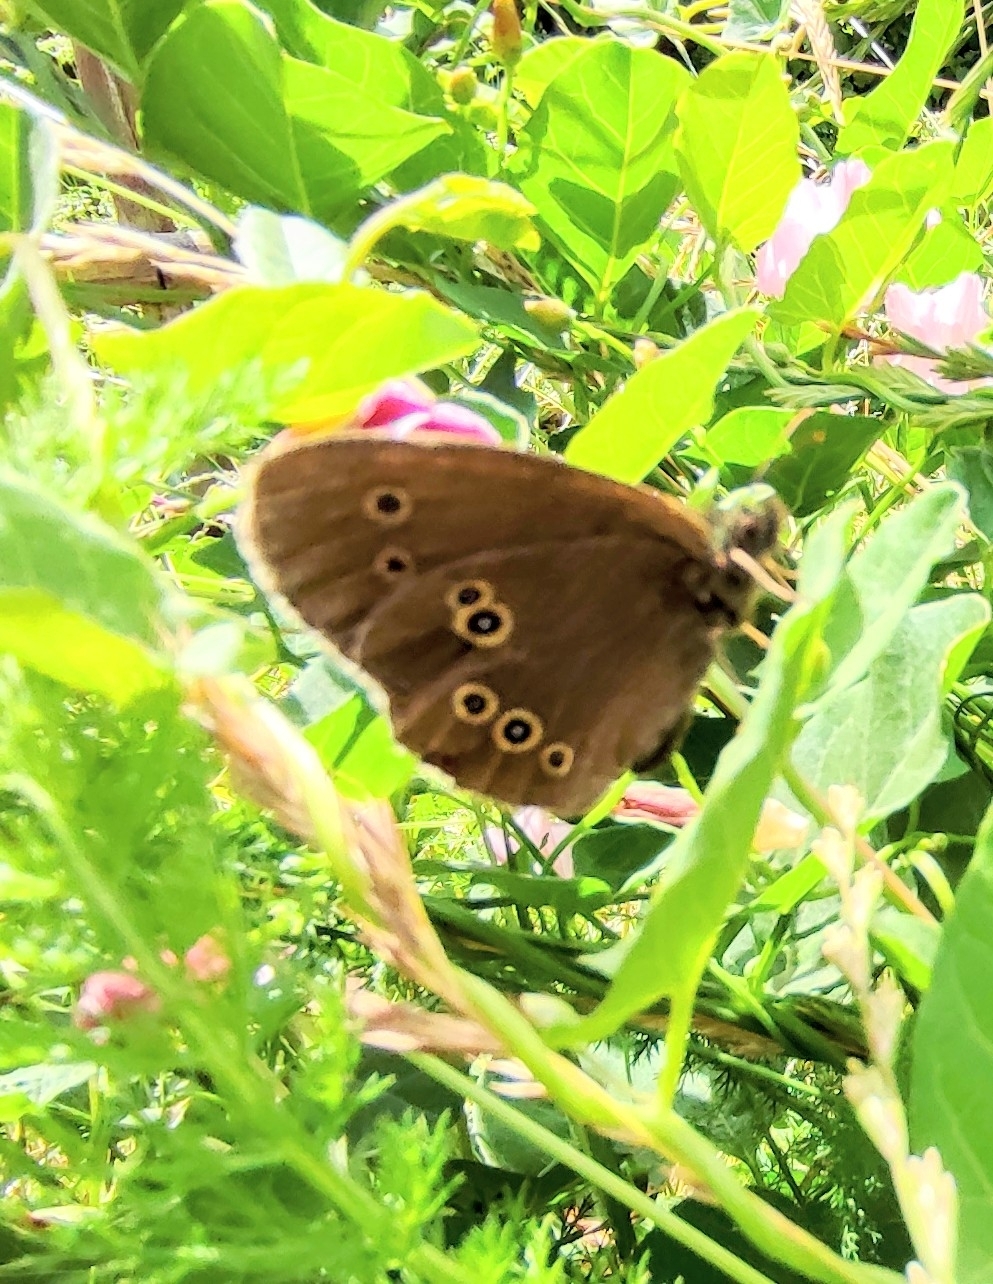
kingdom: Animalia
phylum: Arthropoda
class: Insecta
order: Lepidoptera
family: Nymphalidae
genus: Aphantopus
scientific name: Aphantopus hyperantus
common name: Ringlet
